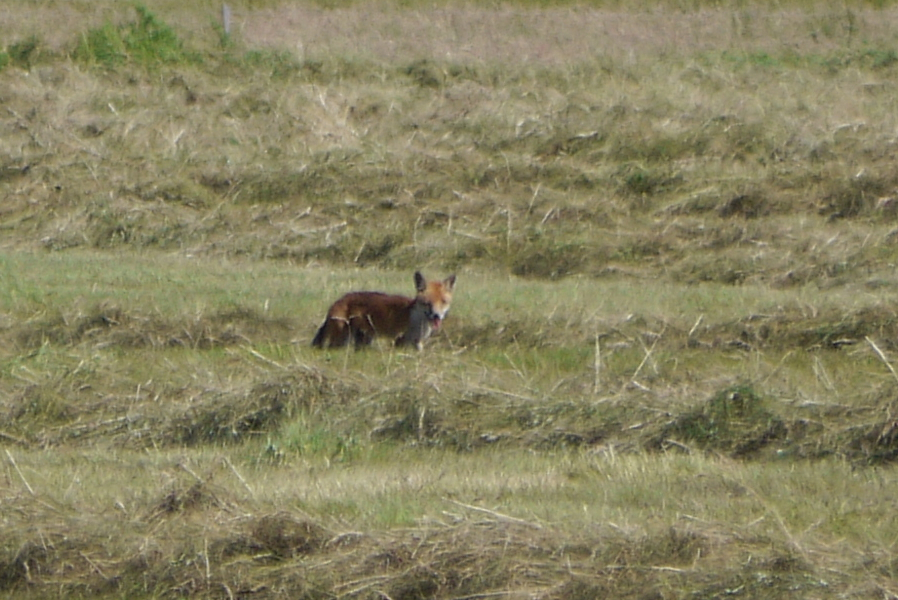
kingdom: Animalia
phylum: Chordata
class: Mammalia
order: Carnivora
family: Canidae
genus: Vulpes
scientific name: Vulpes vulpes
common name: Red fox
